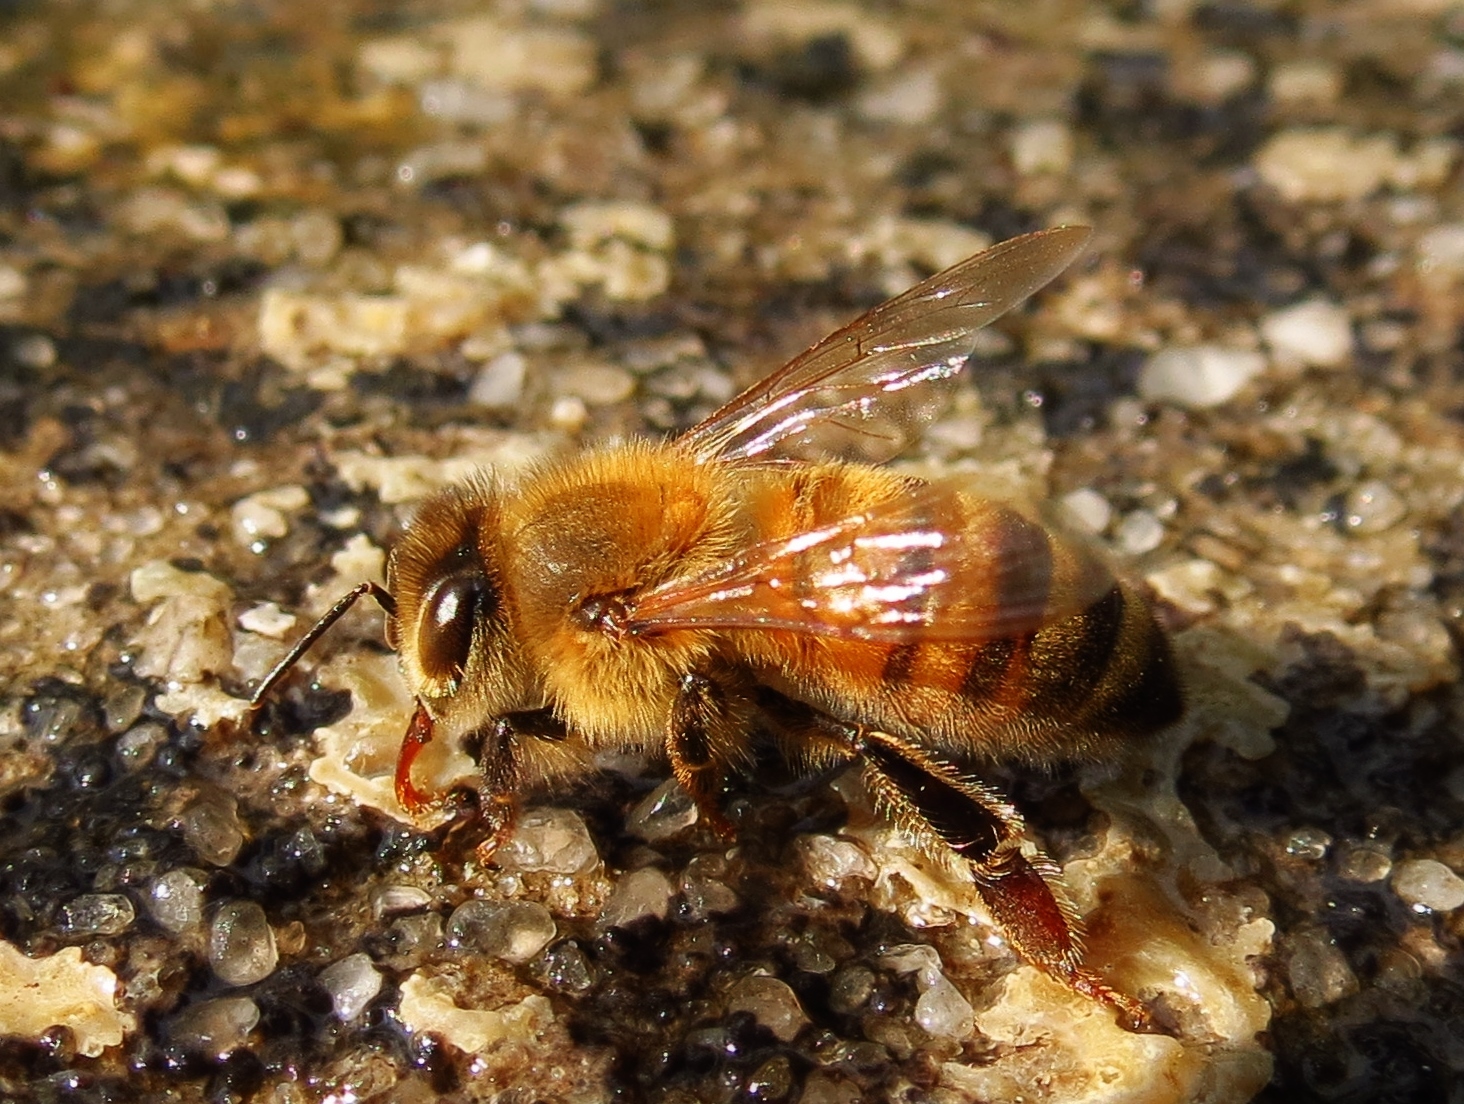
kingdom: Animalia
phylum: Arthropoda
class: Insecta
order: Hymenoptera
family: Apidae
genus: Apis
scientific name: Apis mellifera
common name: Honey bee
